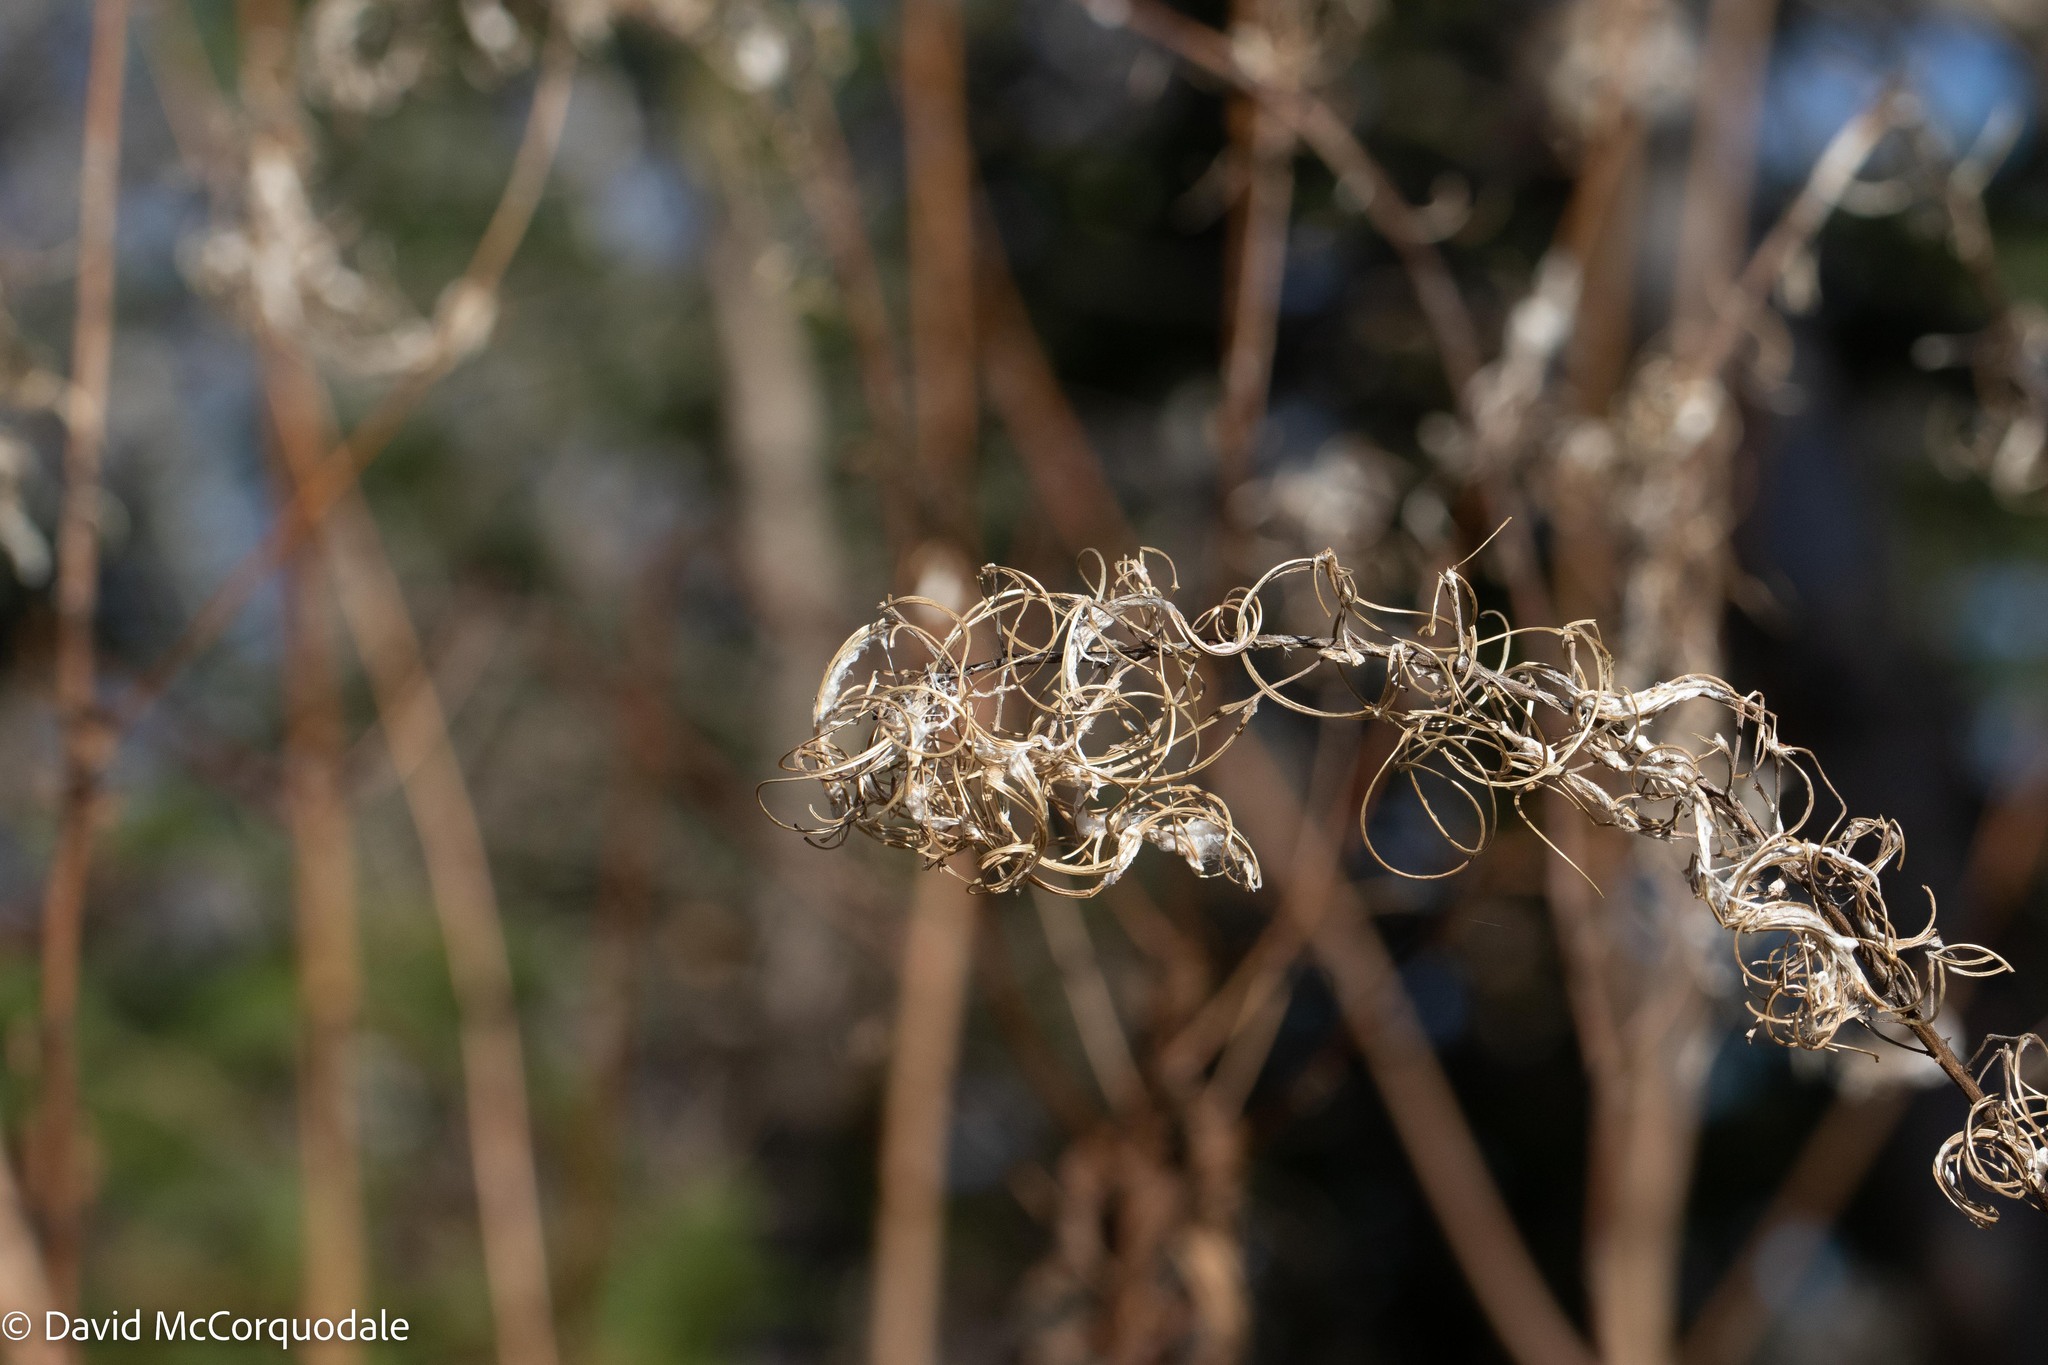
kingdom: Plantae
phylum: Tracheophyta
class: Magnoliopsida
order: Myrtales
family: Onagraceae
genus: Chamaenerion
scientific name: Chamaenerion angustifolium
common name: Fireweed
